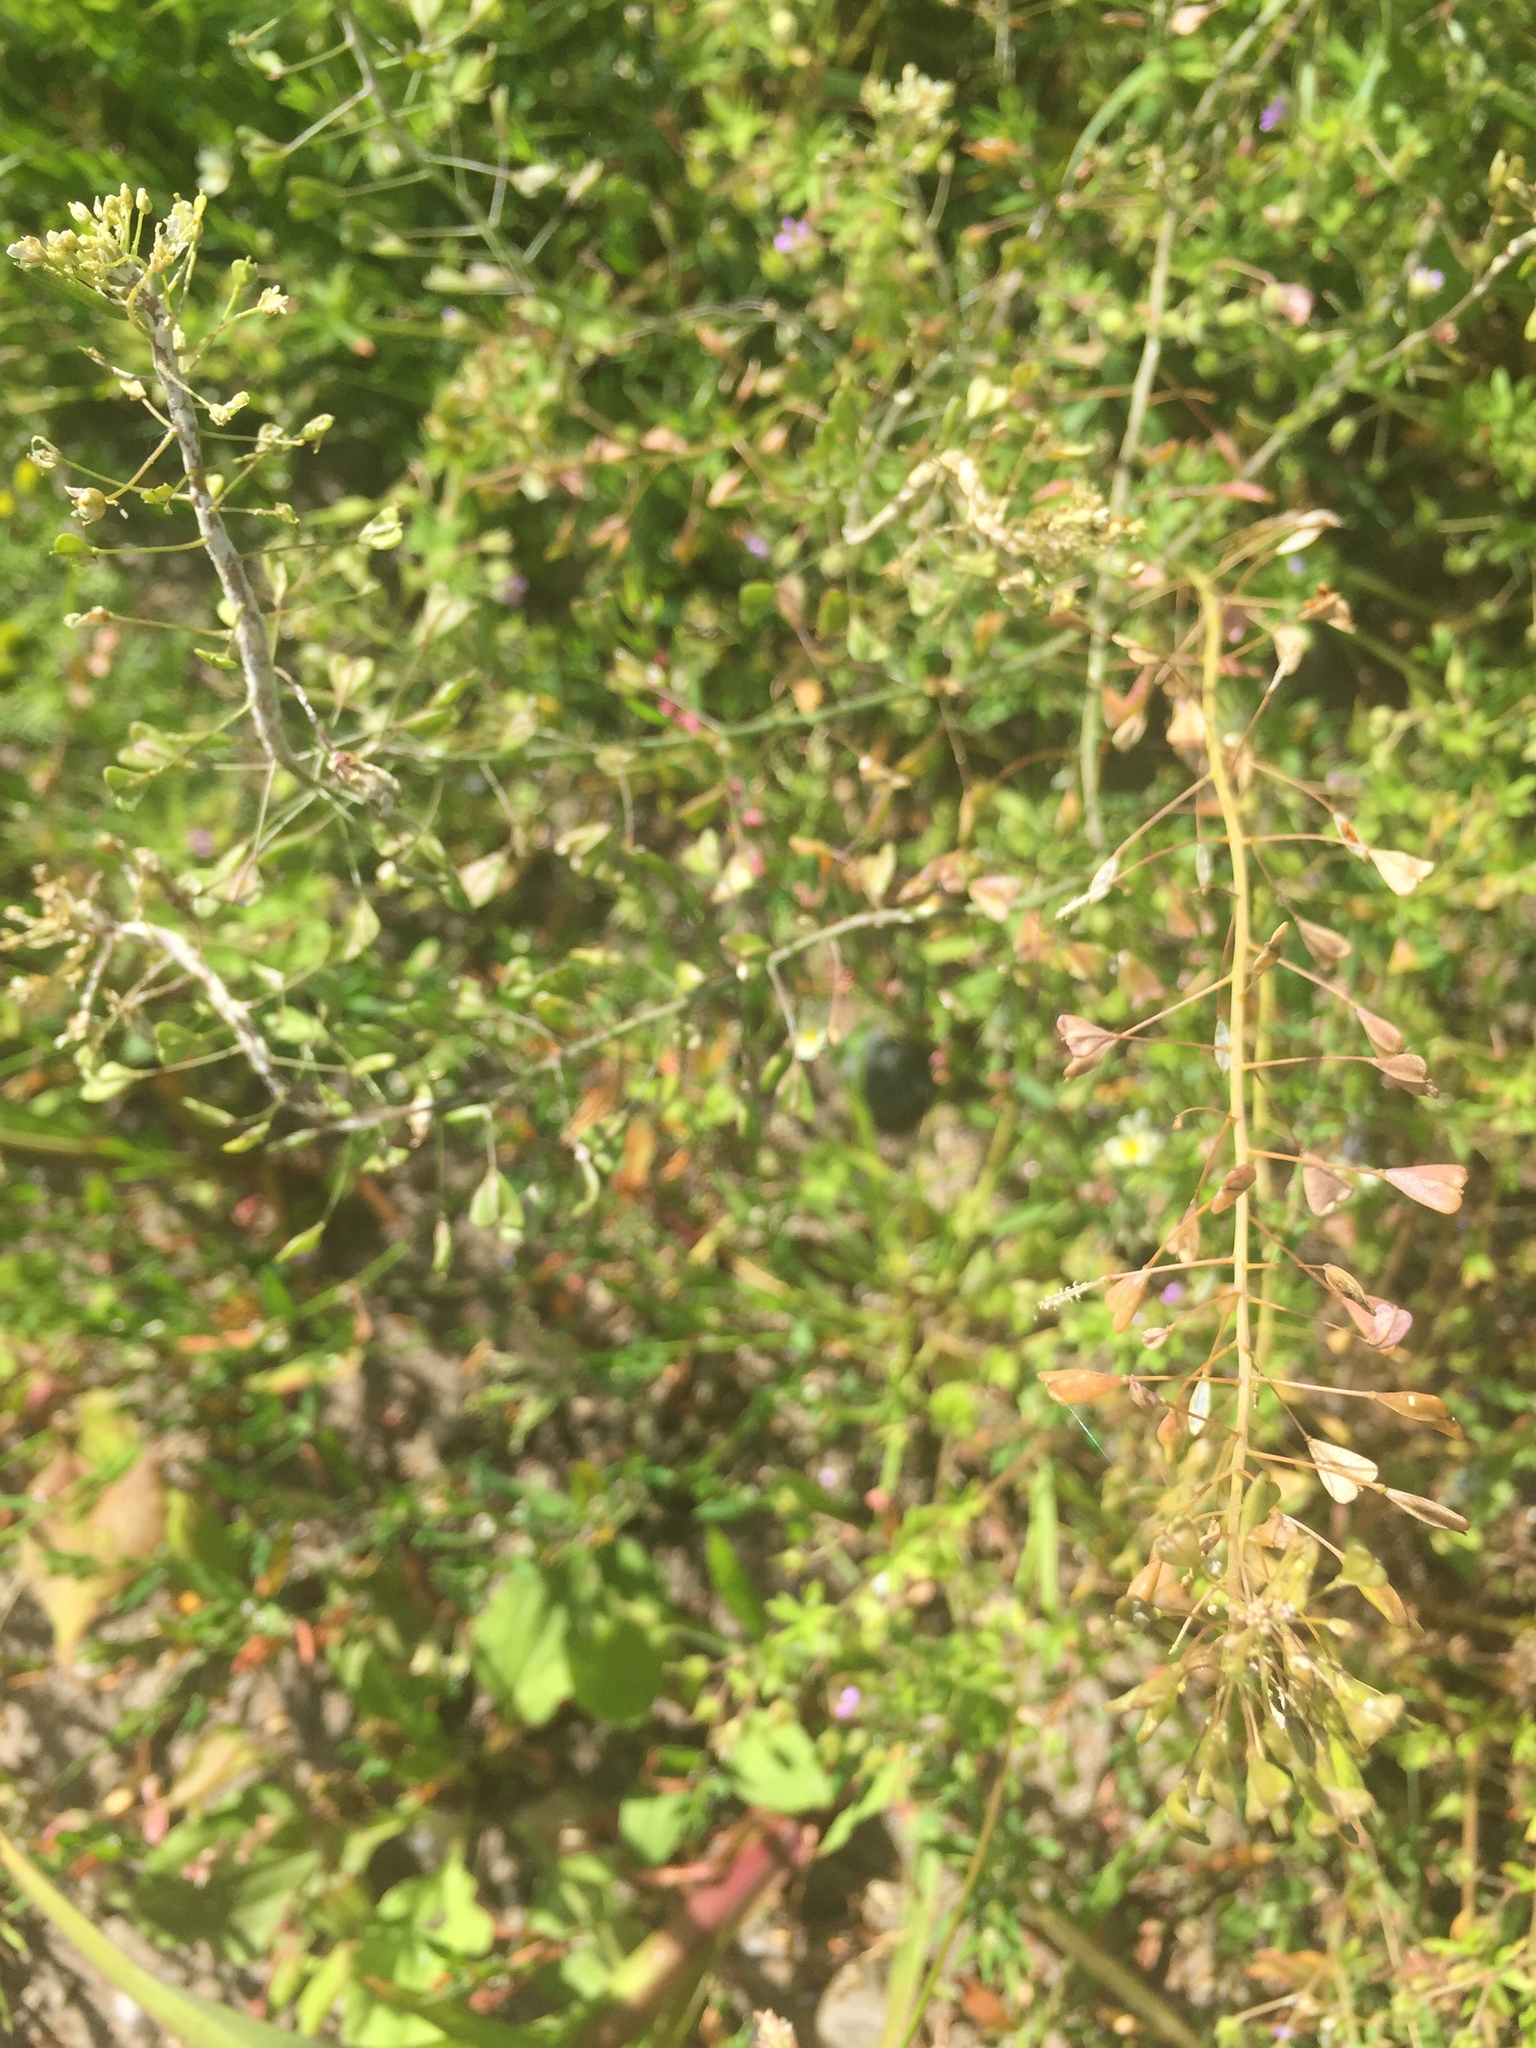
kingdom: Plantae
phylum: Tracheophyta
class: Magnoliopsida
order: Brassicales
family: Brassicaceae
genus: Capsella
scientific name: Capsella bursa-pastoris
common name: Shepherd's purse
